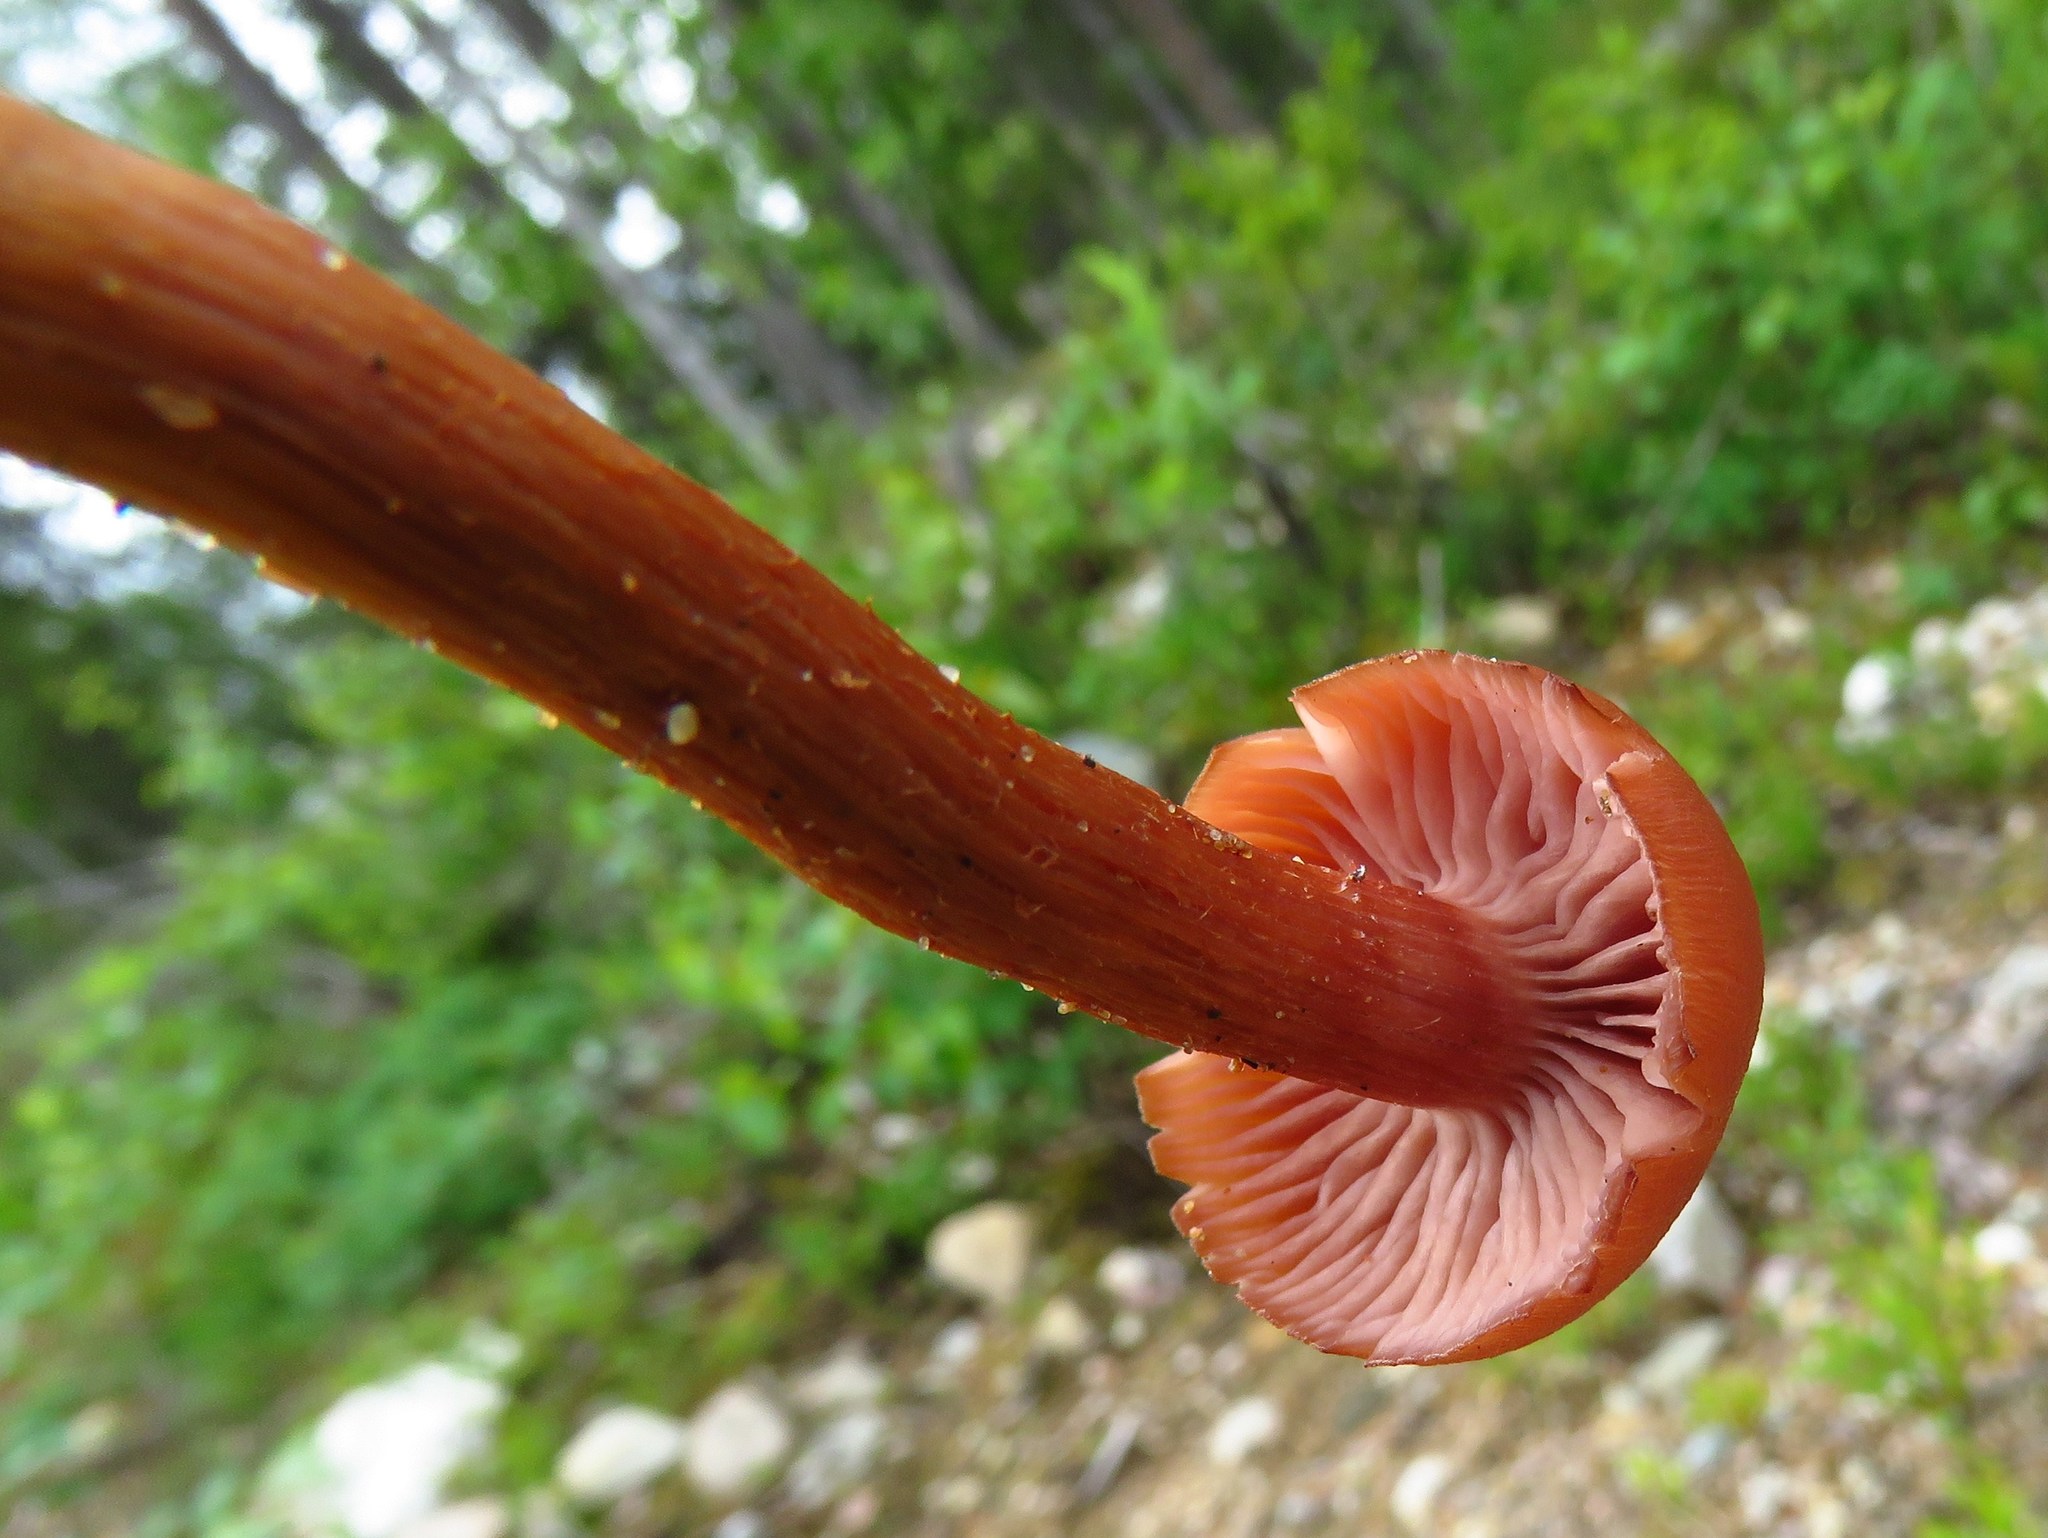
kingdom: Fungi
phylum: Basidiomycota
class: Agaricomycetes
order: Agaricales
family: Hydnangiaceae
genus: Laccaria
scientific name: Laccaria laccata
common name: Deceiver
